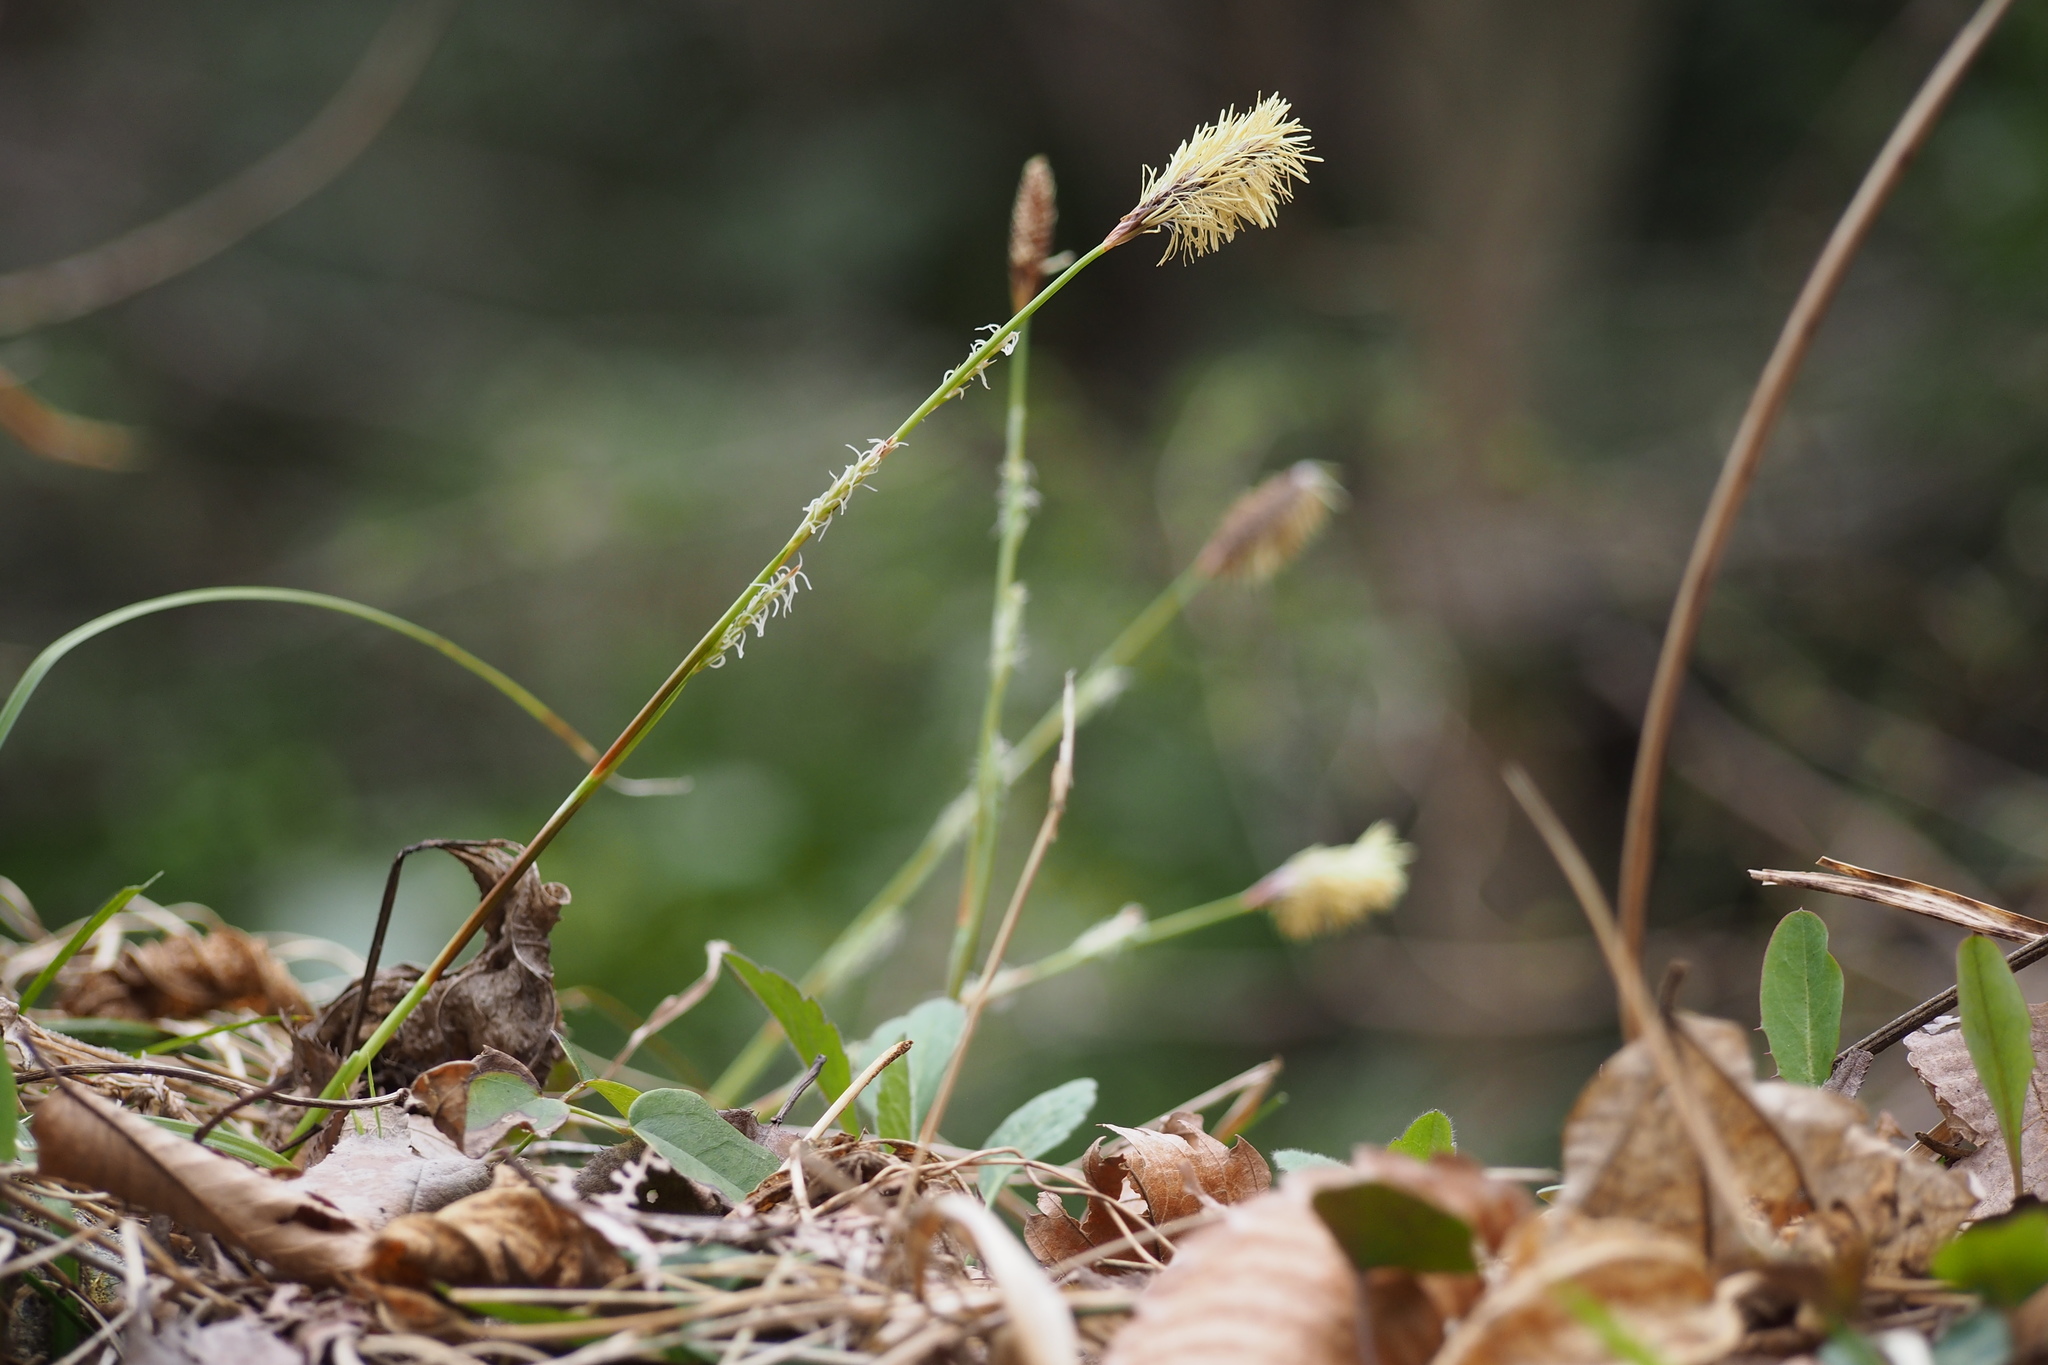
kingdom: Plantae
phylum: Tracheophyta
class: Liliopsida
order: Poales
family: Cyperaceae
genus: Carex
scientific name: Carex conica
